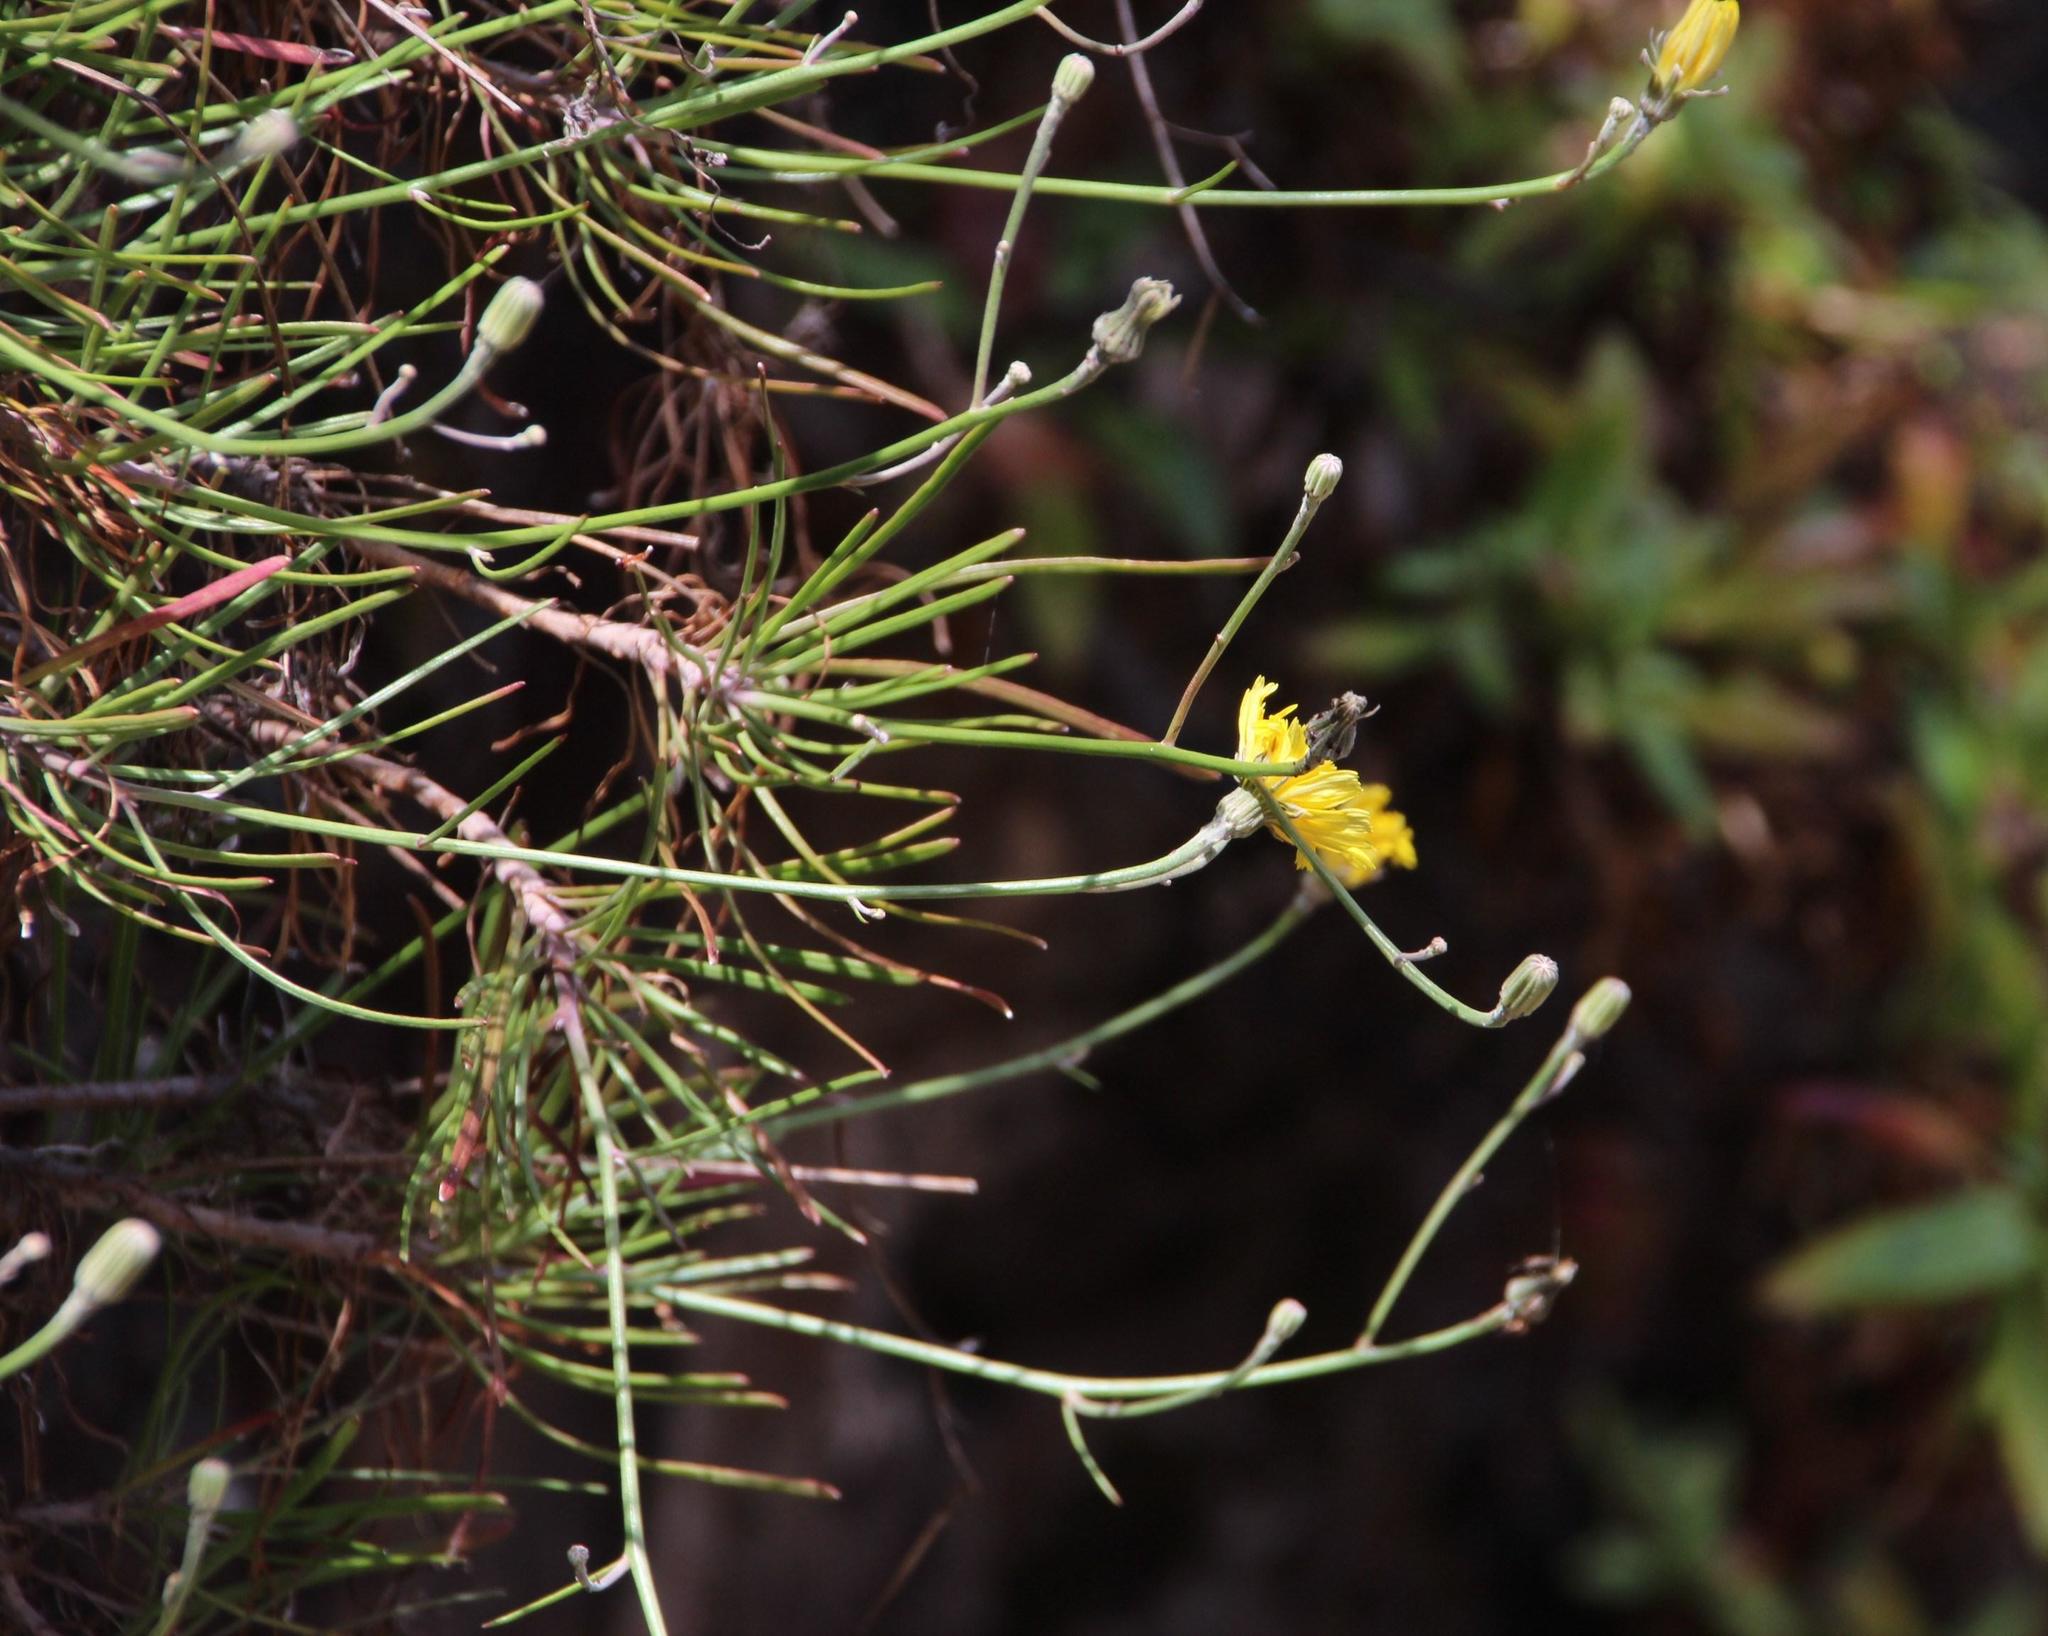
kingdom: Plantae
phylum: Tracheophyta
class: Magnoliopsida
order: Asterales
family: Asteraceae
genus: Tolpis
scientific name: Tolpis succulenta
